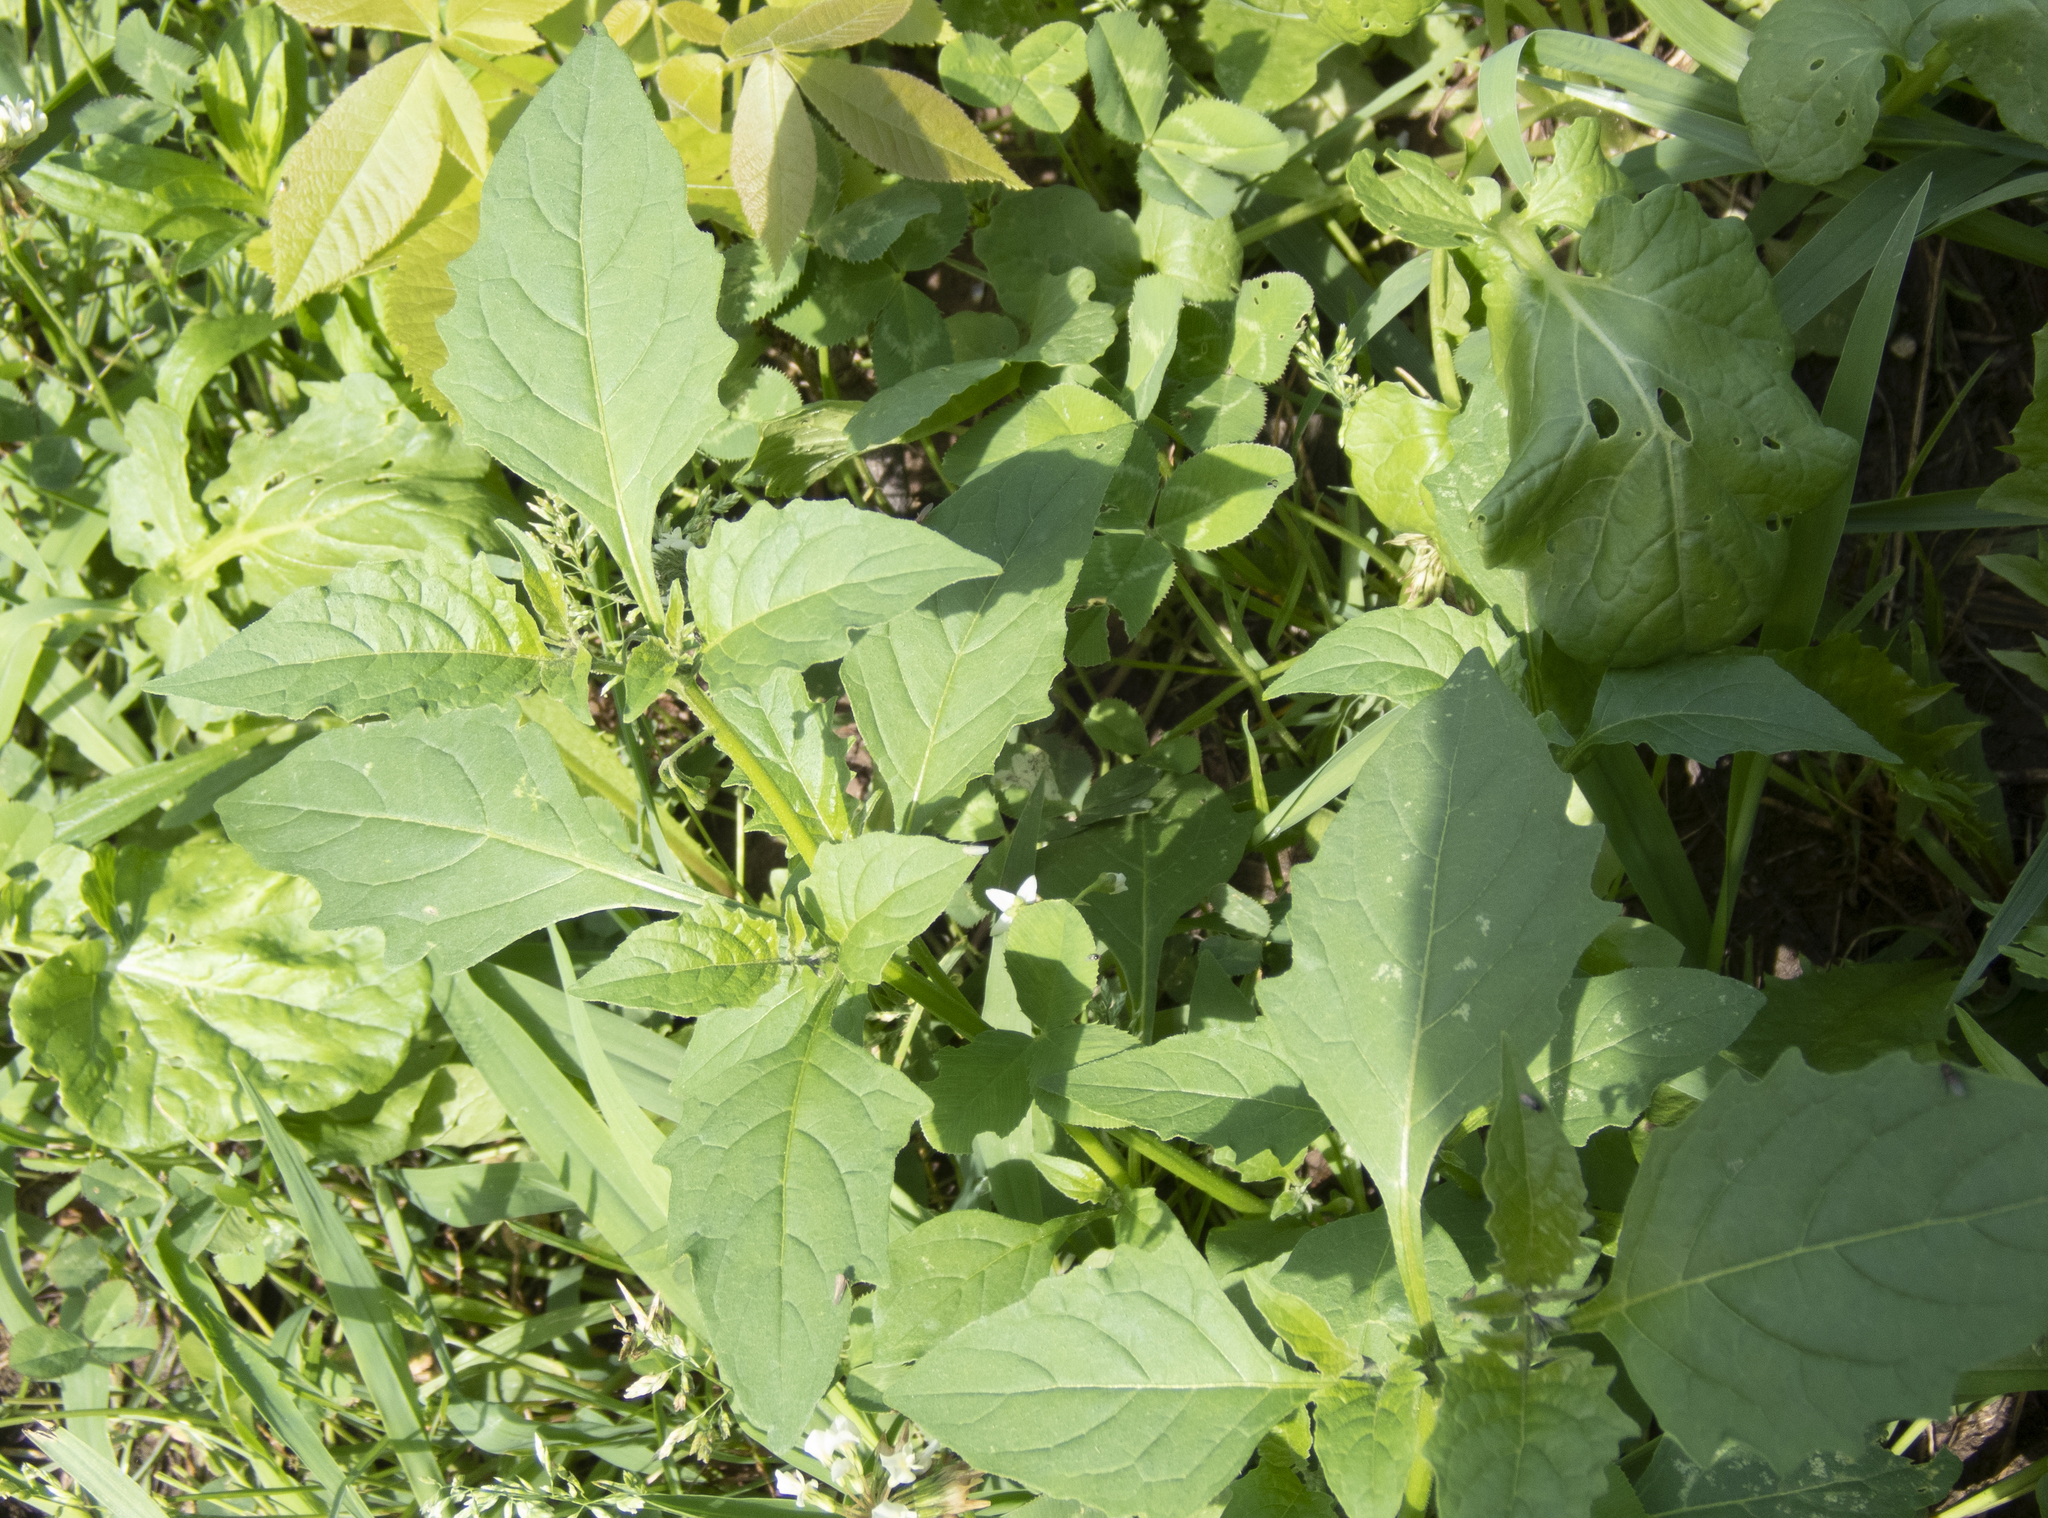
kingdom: Plantae
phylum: Tracheophyta
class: Magnoliopsida
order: Solanales
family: Solanaceae
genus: Solanum
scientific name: Solanum emulans
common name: Eastern black nightshade
